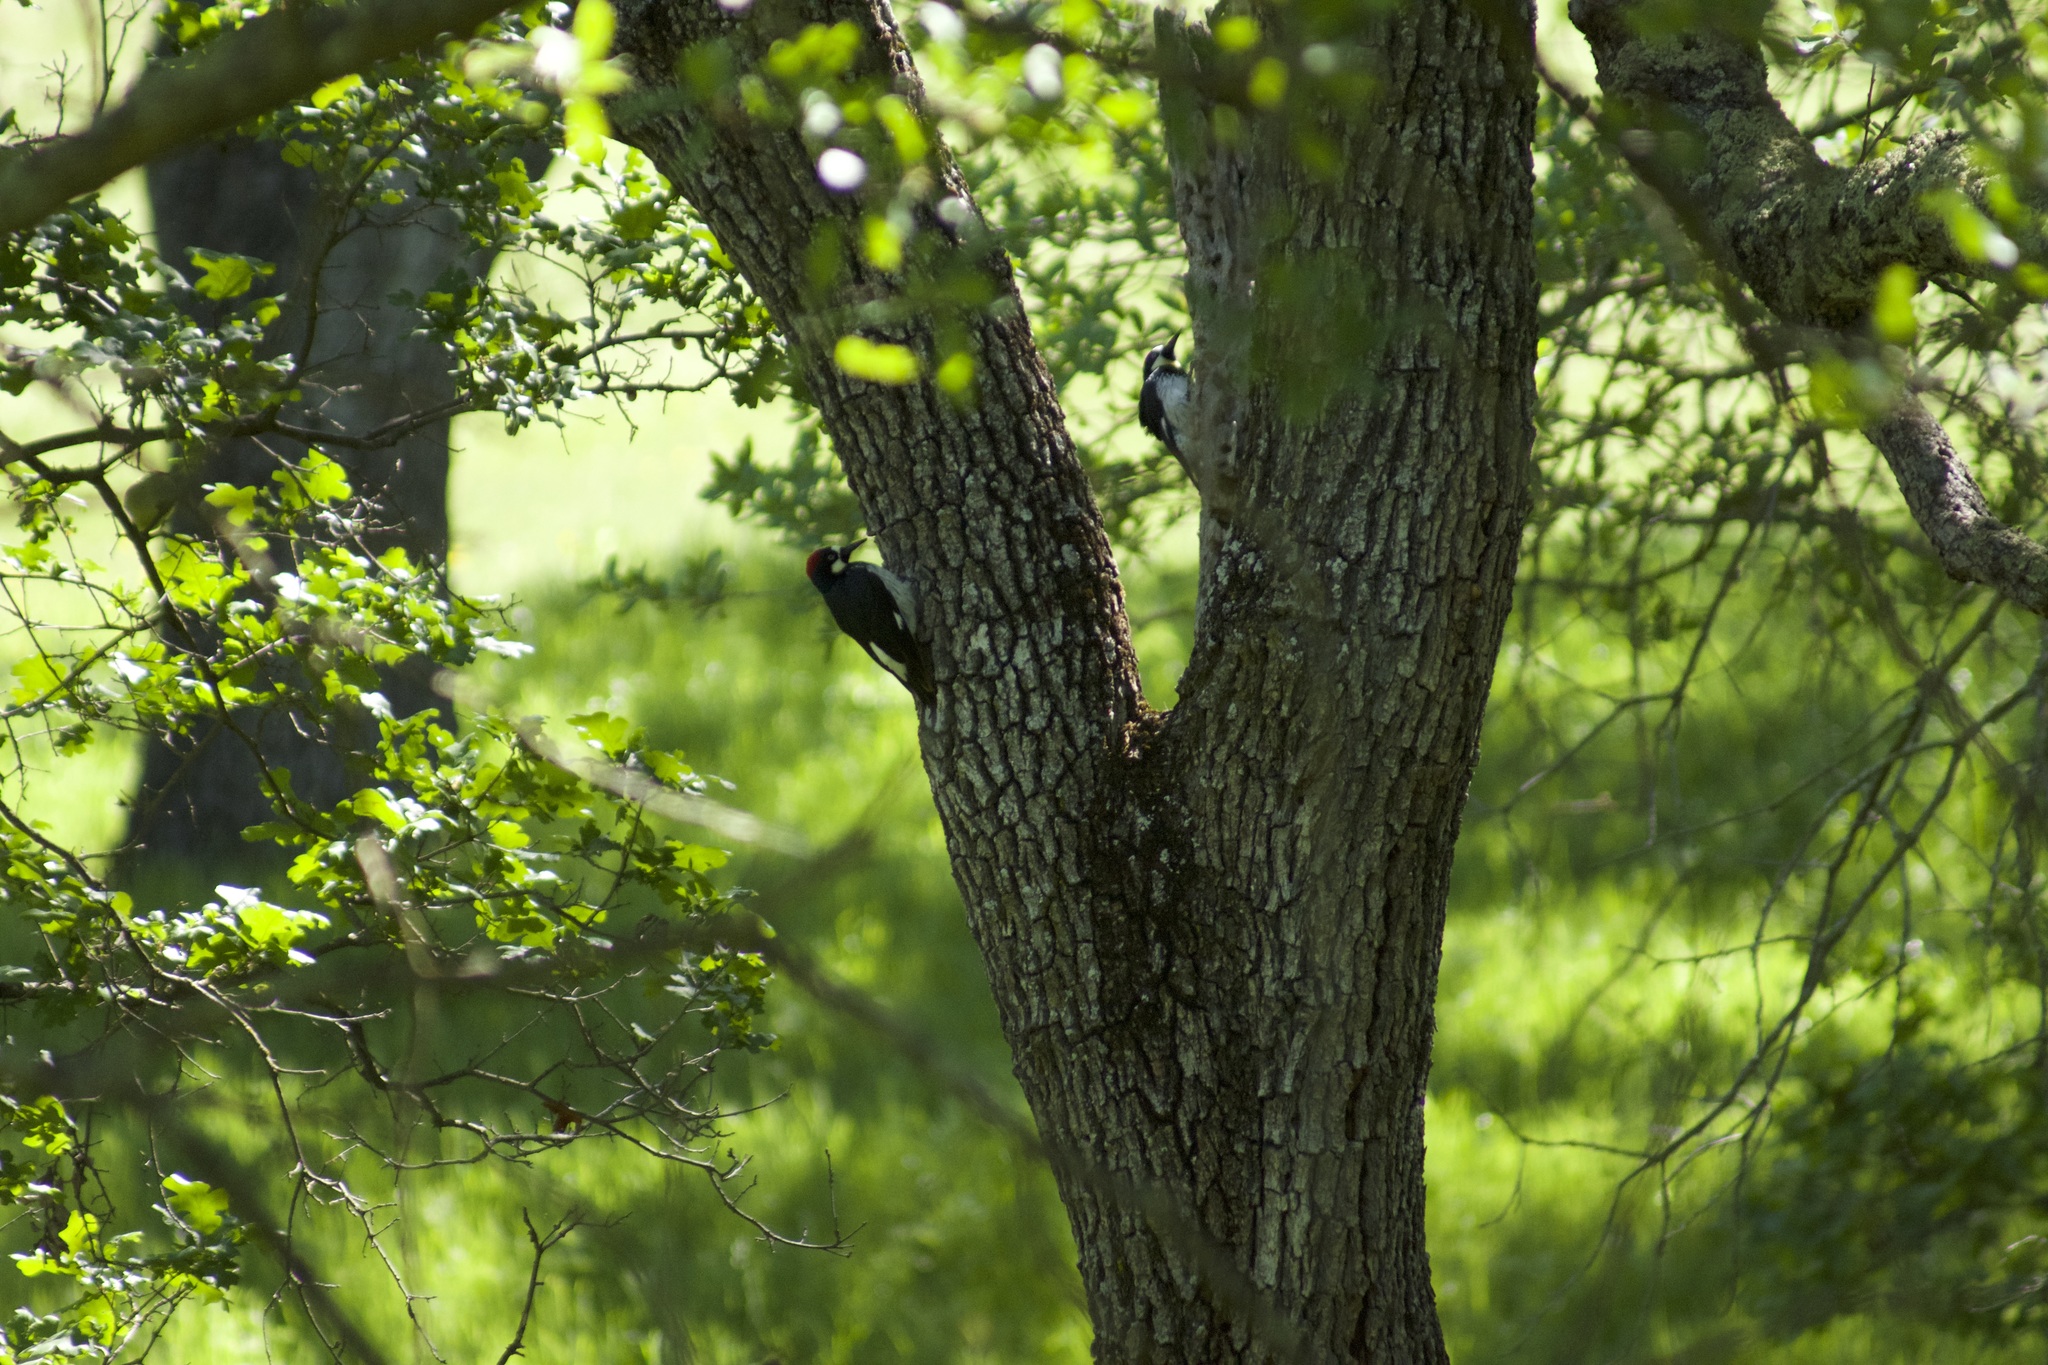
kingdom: Animalia
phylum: Chordata
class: Aves
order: Piciformes
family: Picidae
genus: Melanerpes
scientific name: Melanerpes formicivorus
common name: Acorn woodpecker
